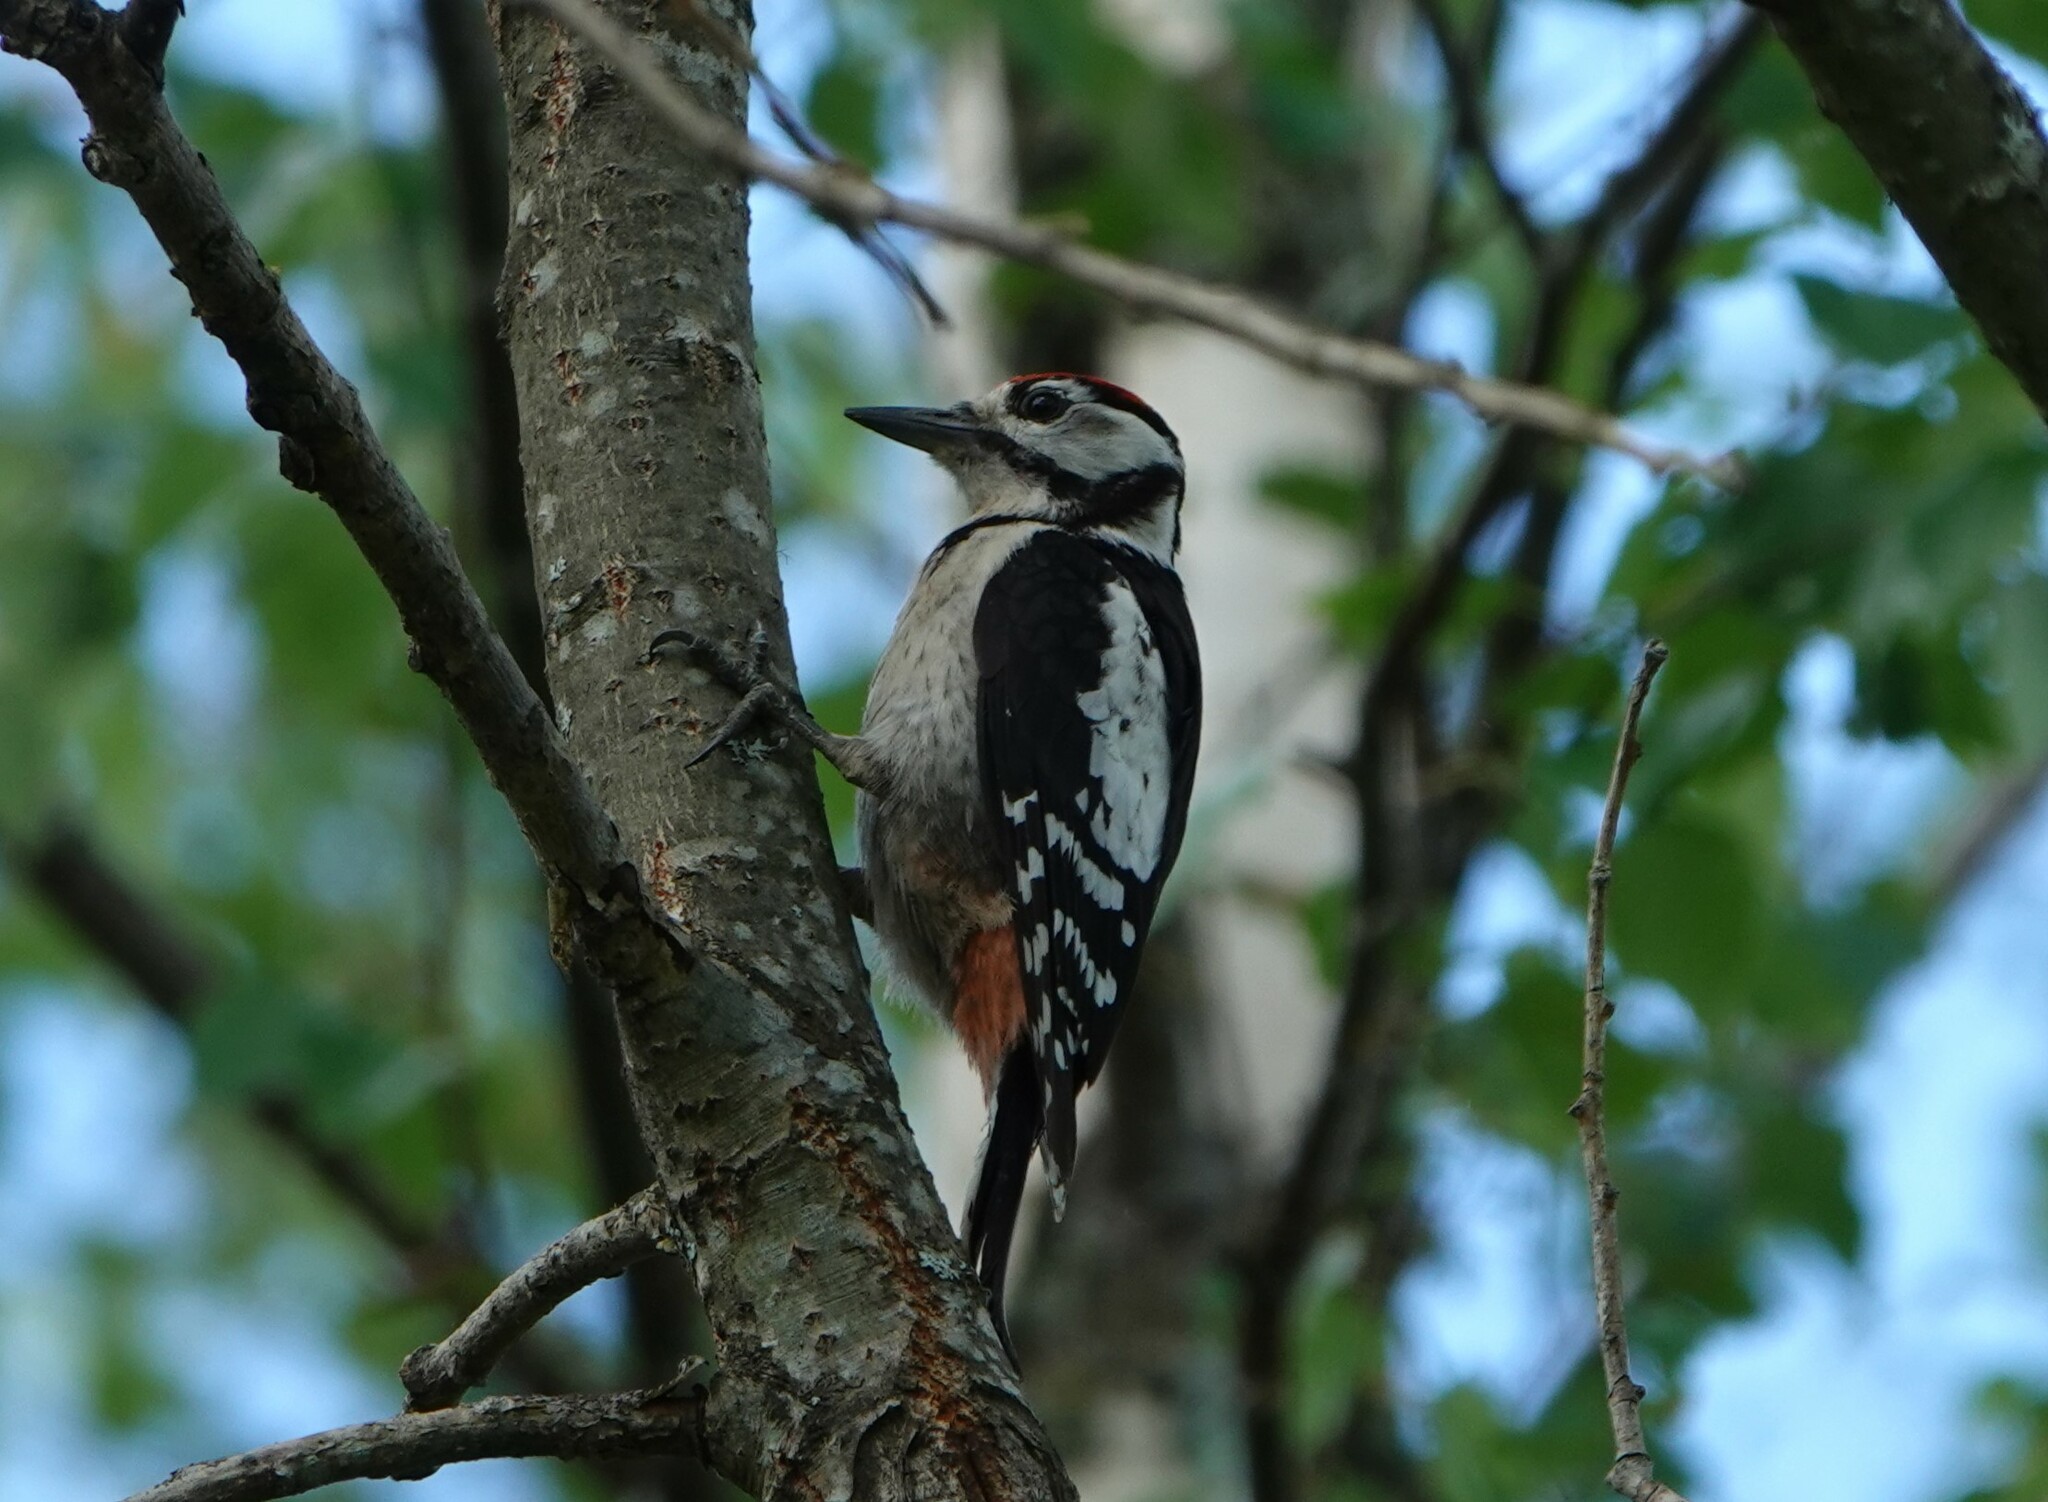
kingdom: Animalia
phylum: Chordata
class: Aves
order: Piciformes
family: Picidae
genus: Dendrocopos
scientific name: Dendrocopos major
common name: Great spotted woodpecker
